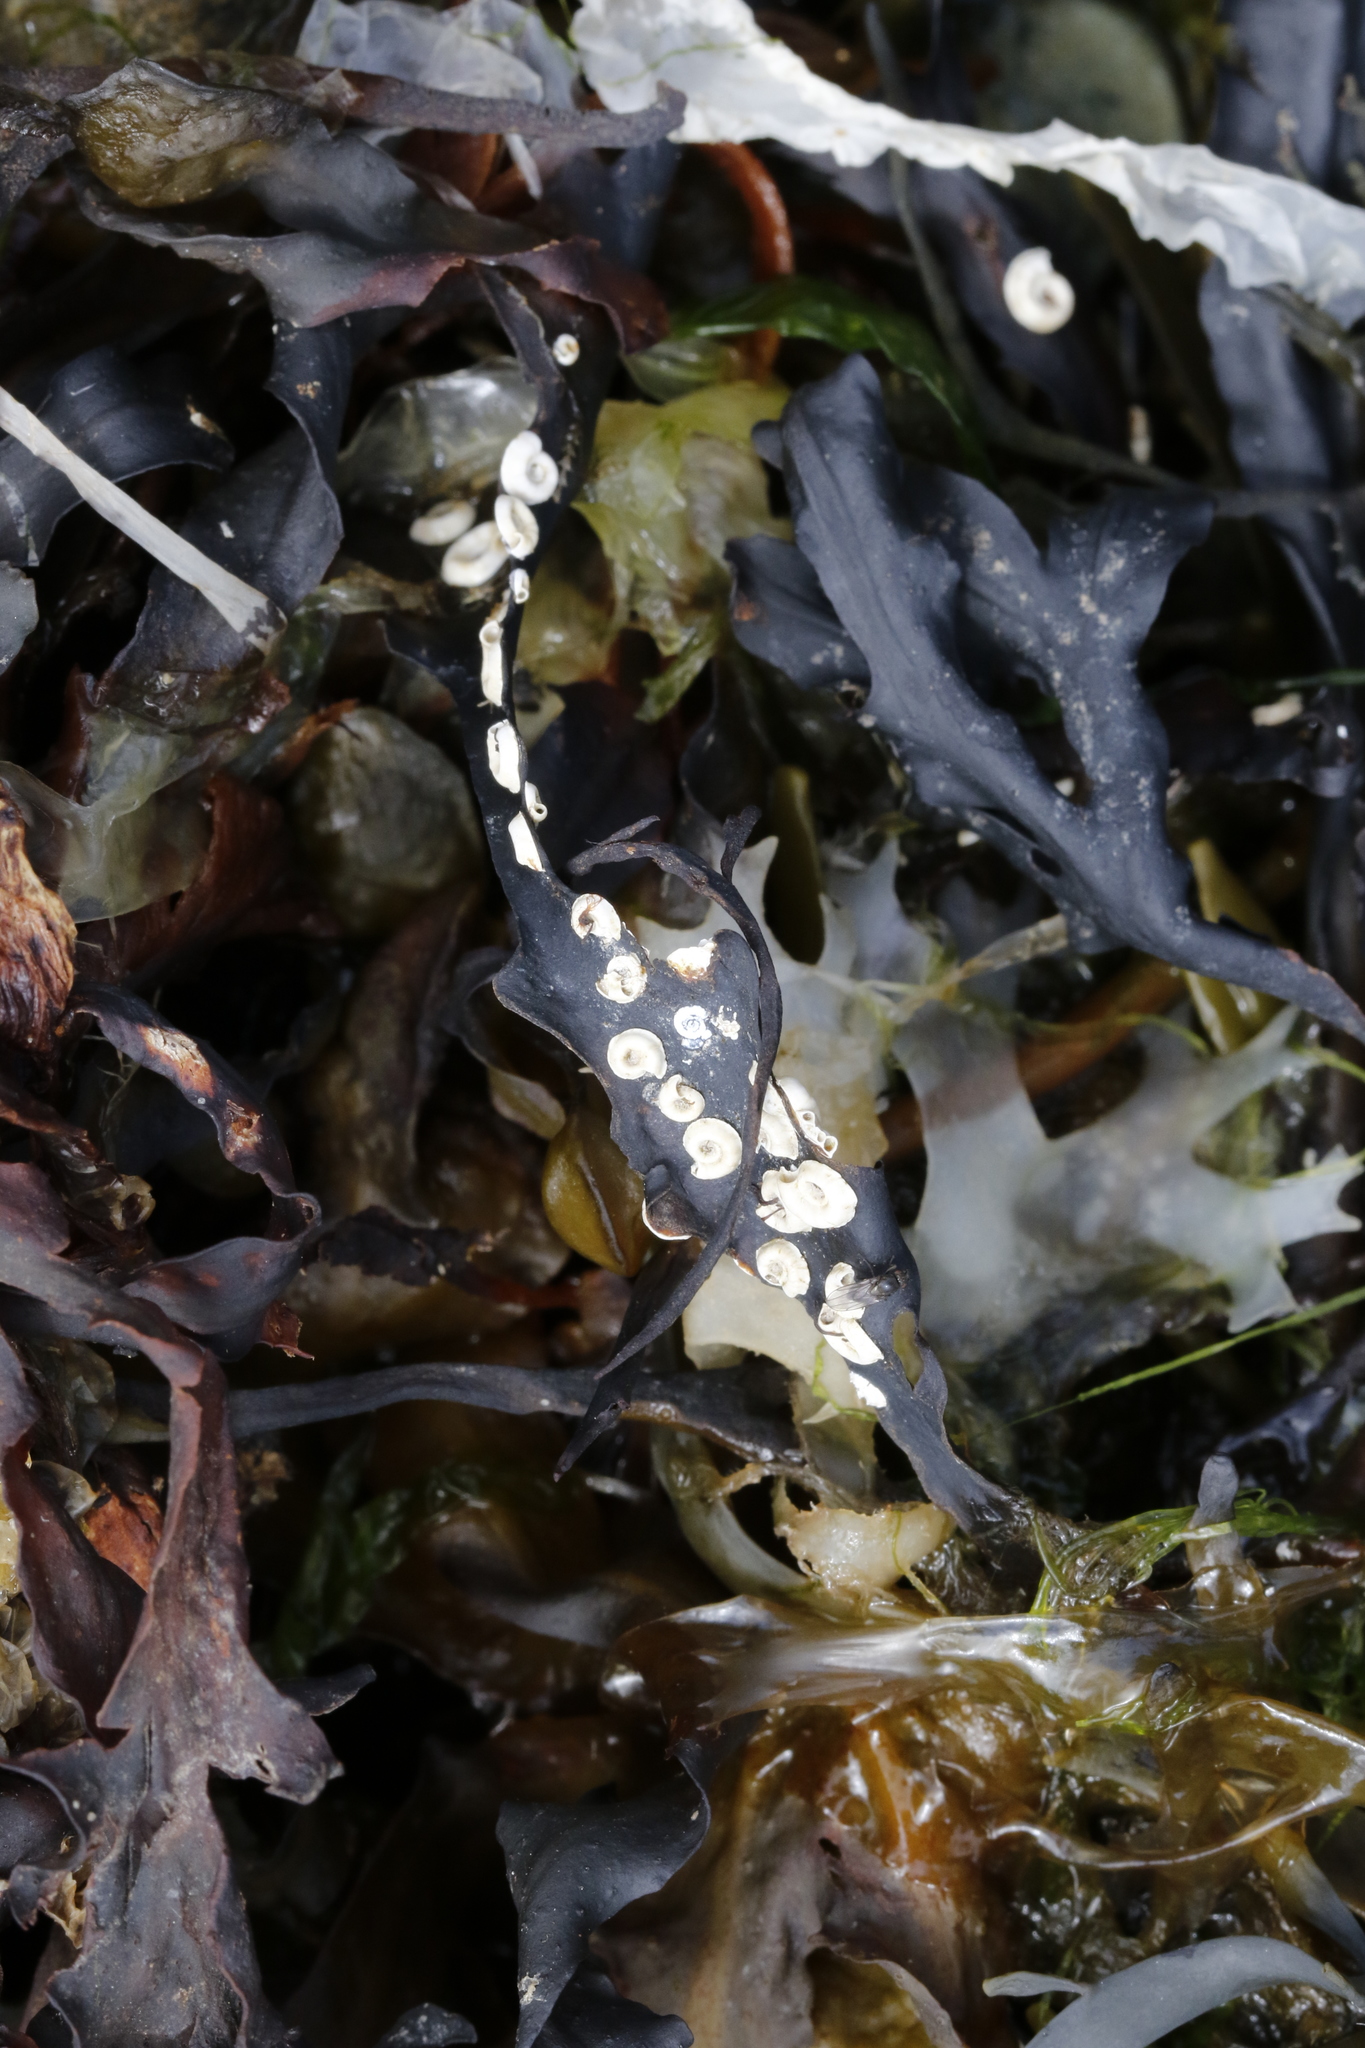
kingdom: Animalia
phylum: Annelida
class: Polychaeta
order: Sabellida
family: Serpulidae
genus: Spirorbis
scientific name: Spirorbis spirorbis
